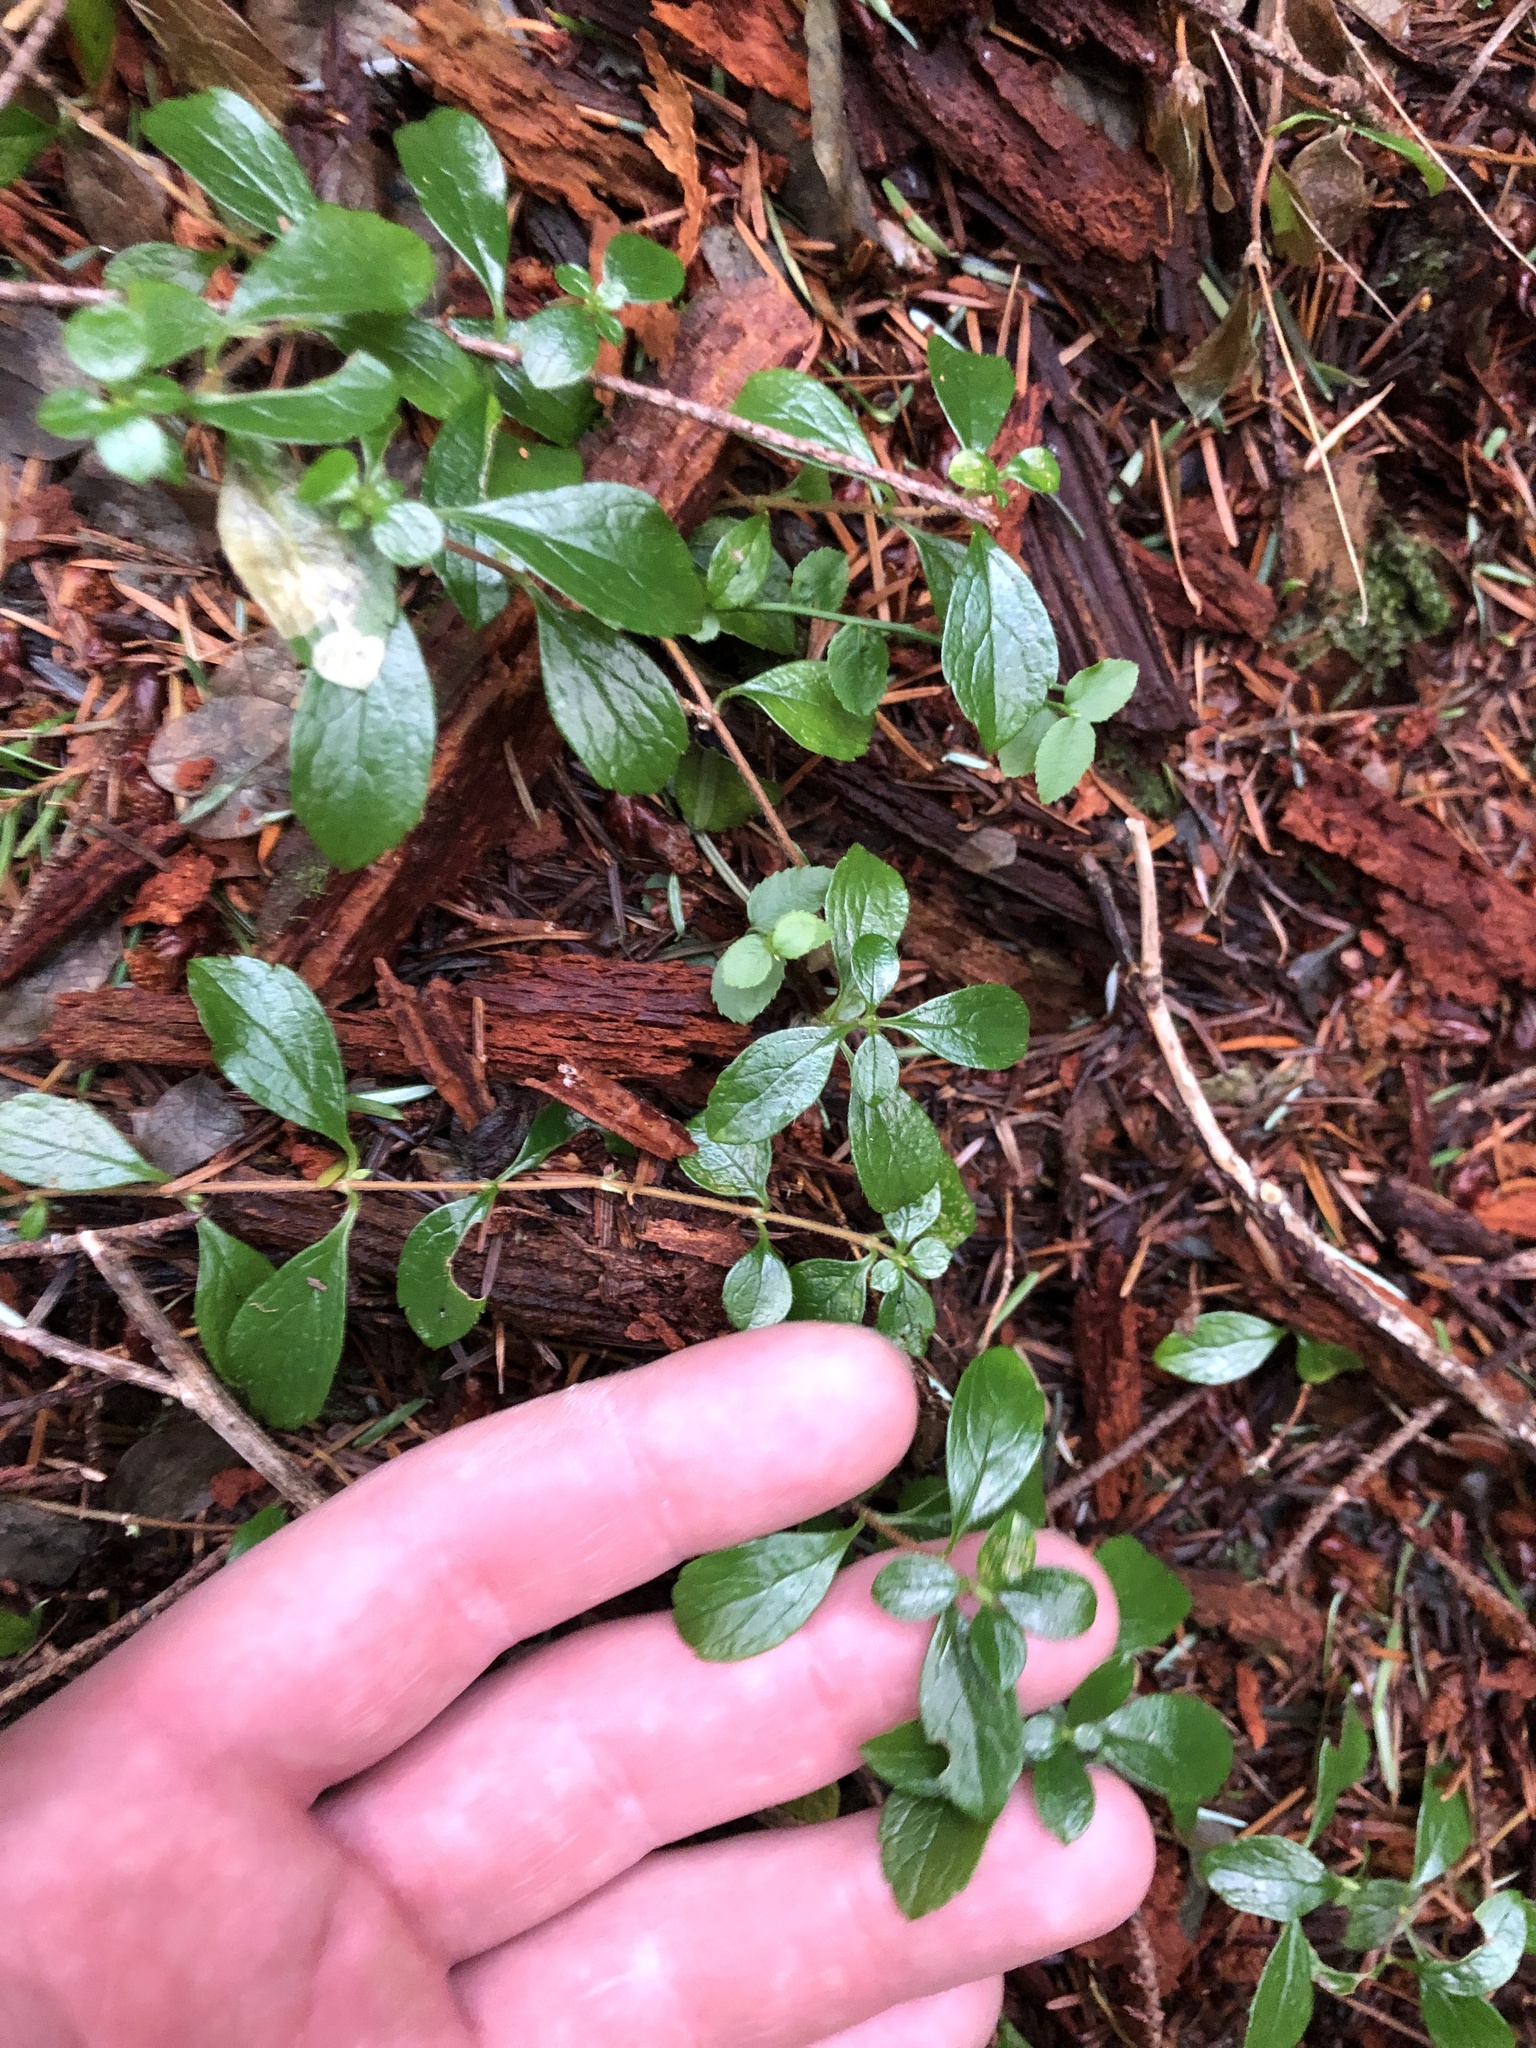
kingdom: Plantae
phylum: Tracheophyta
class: Magnoliopsida
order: Dipsacales
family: Caprifoliaceae
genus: Linnaea
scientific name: Linnaea borealis
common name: Twinflower
